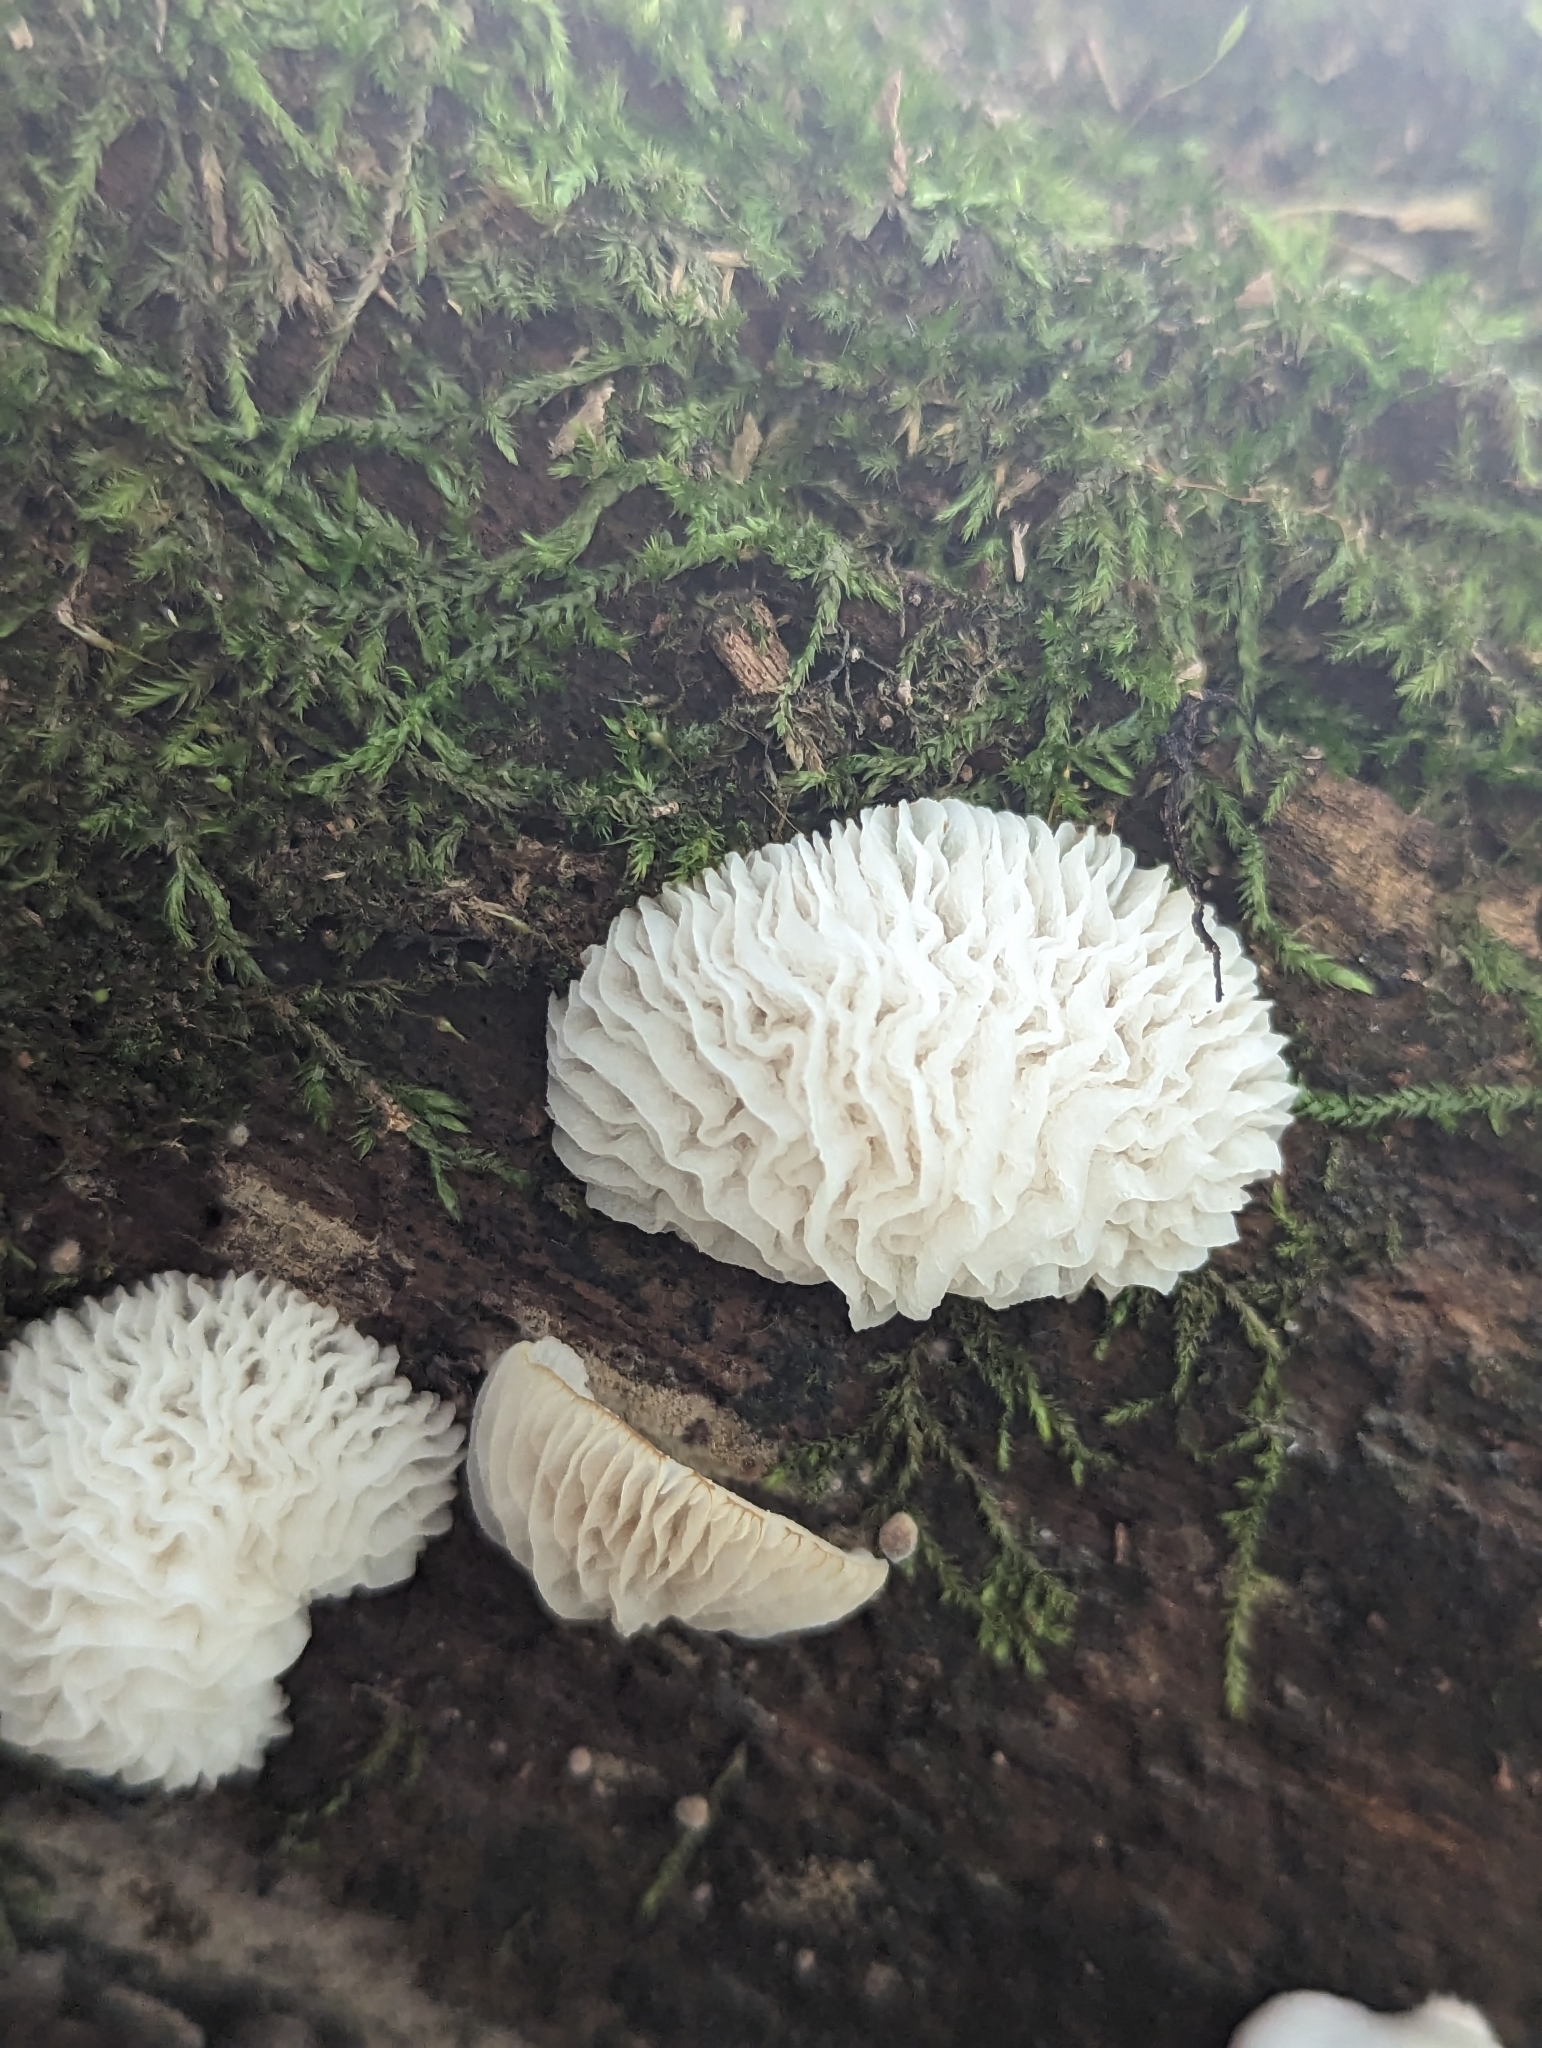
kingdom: Fungi
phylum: Ascomycota
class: Sordariomycetes
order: Hypocreales
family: Bionectriaceae
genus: Nectriopsis
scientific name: Nectriopsis tremellicola
